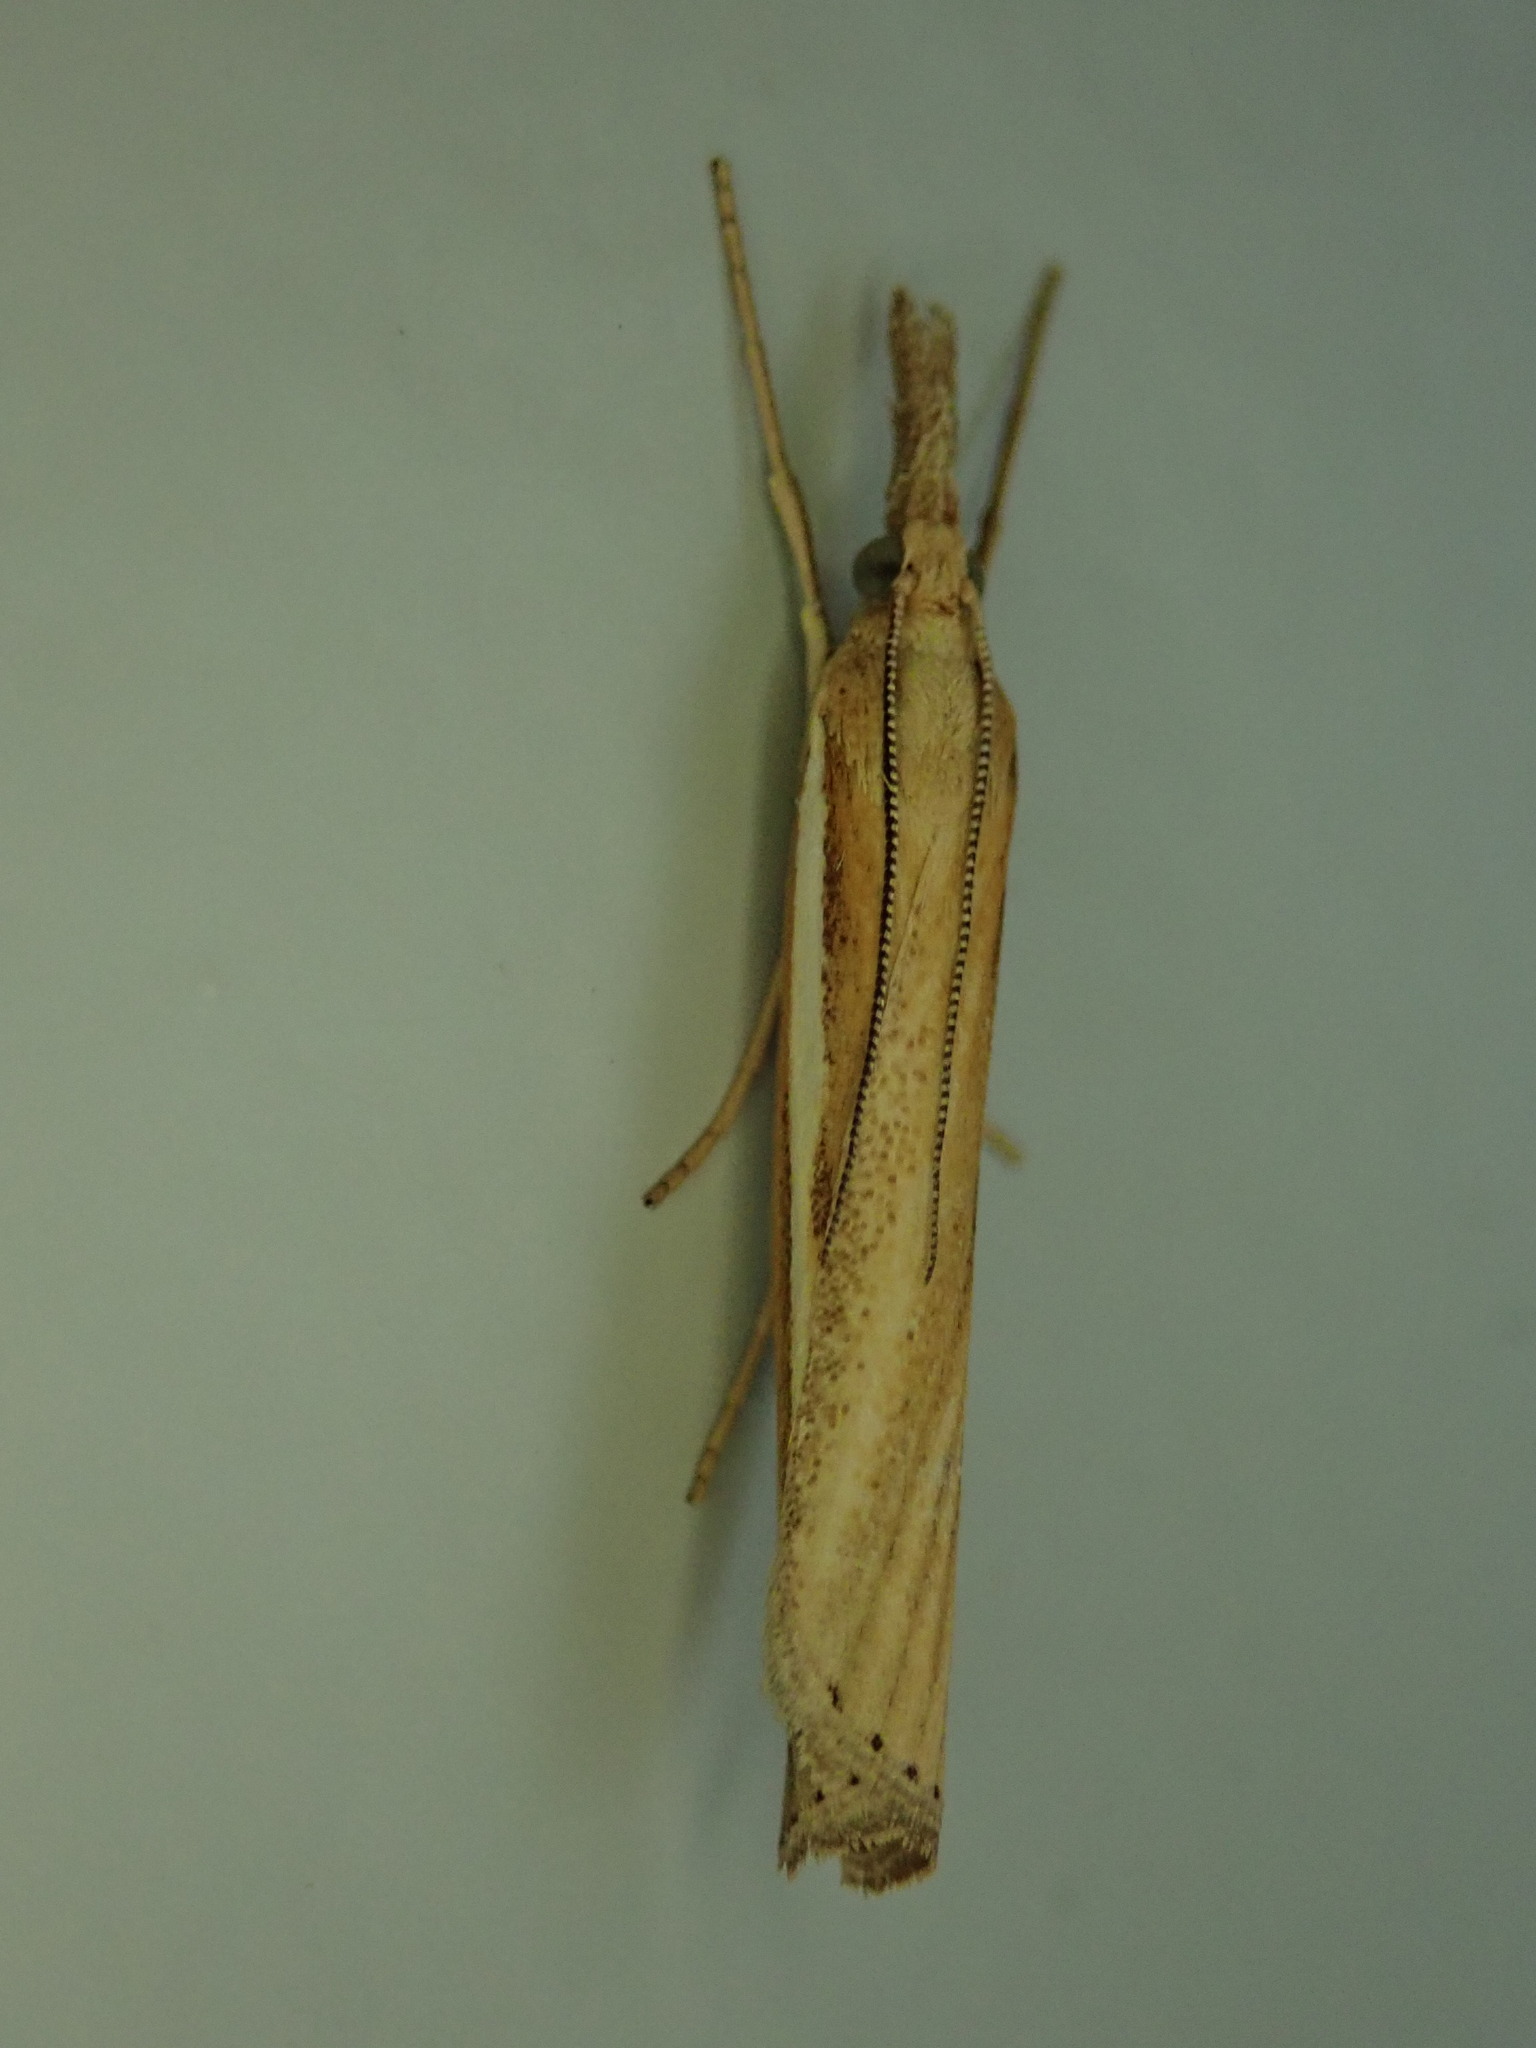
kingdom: Animalia
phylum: Arthropoda
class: Insecta
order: Lepidoptera
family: Crambidae
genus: Agriphila
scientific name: Agriphila tristellus
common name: Common grass-veneer
